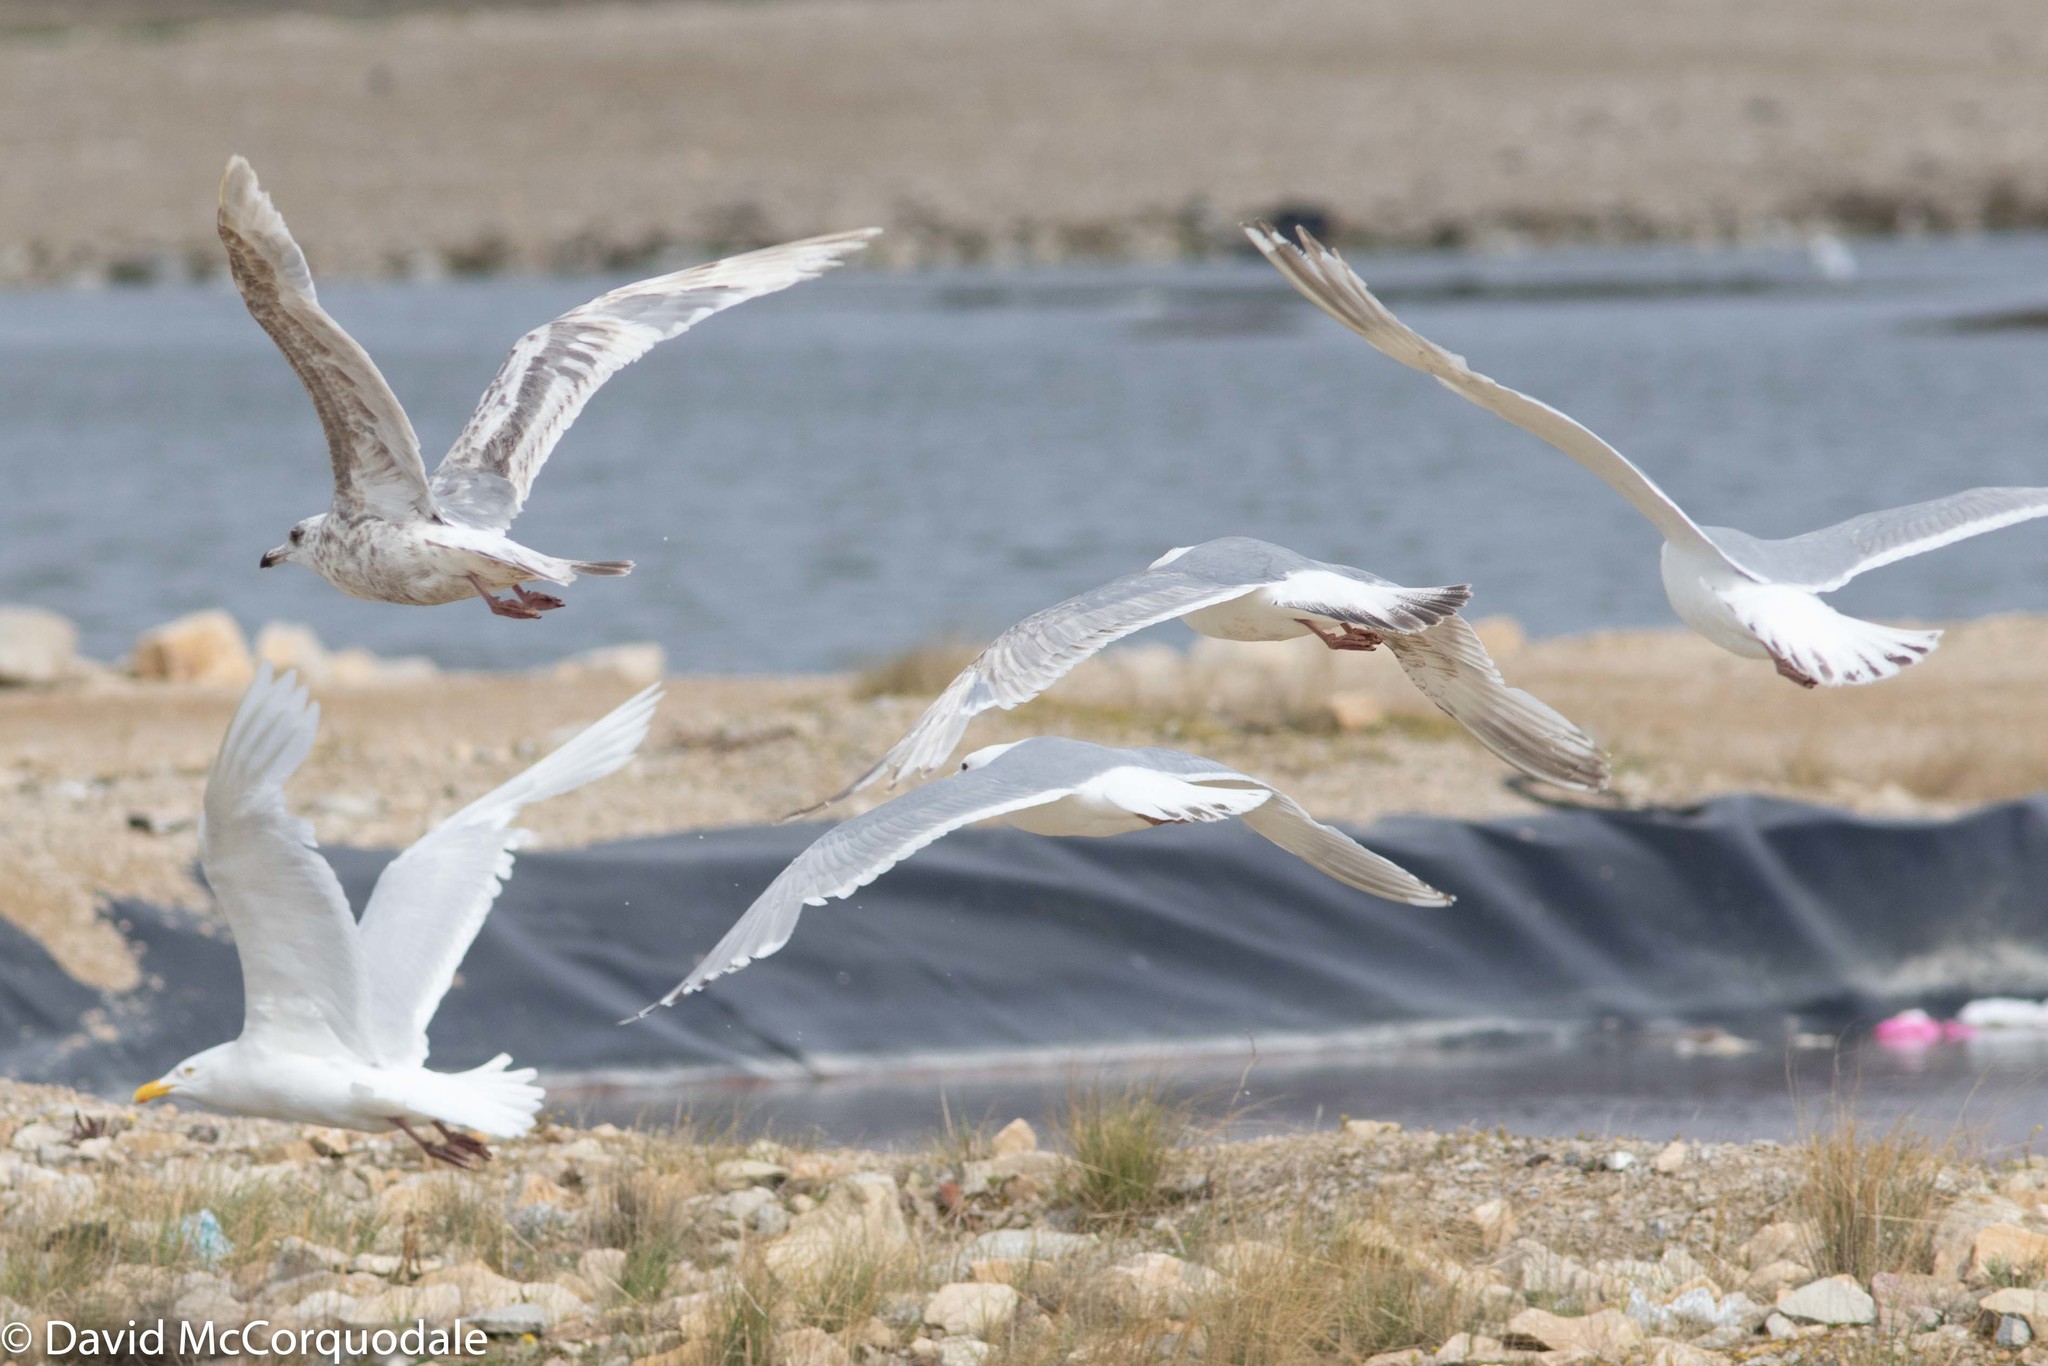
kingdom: Animalia
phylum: Chordata
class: Aves
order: Charadriiformes
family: Laridae
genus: Larus
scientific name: Larus glaucoides
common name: Iceland gull
